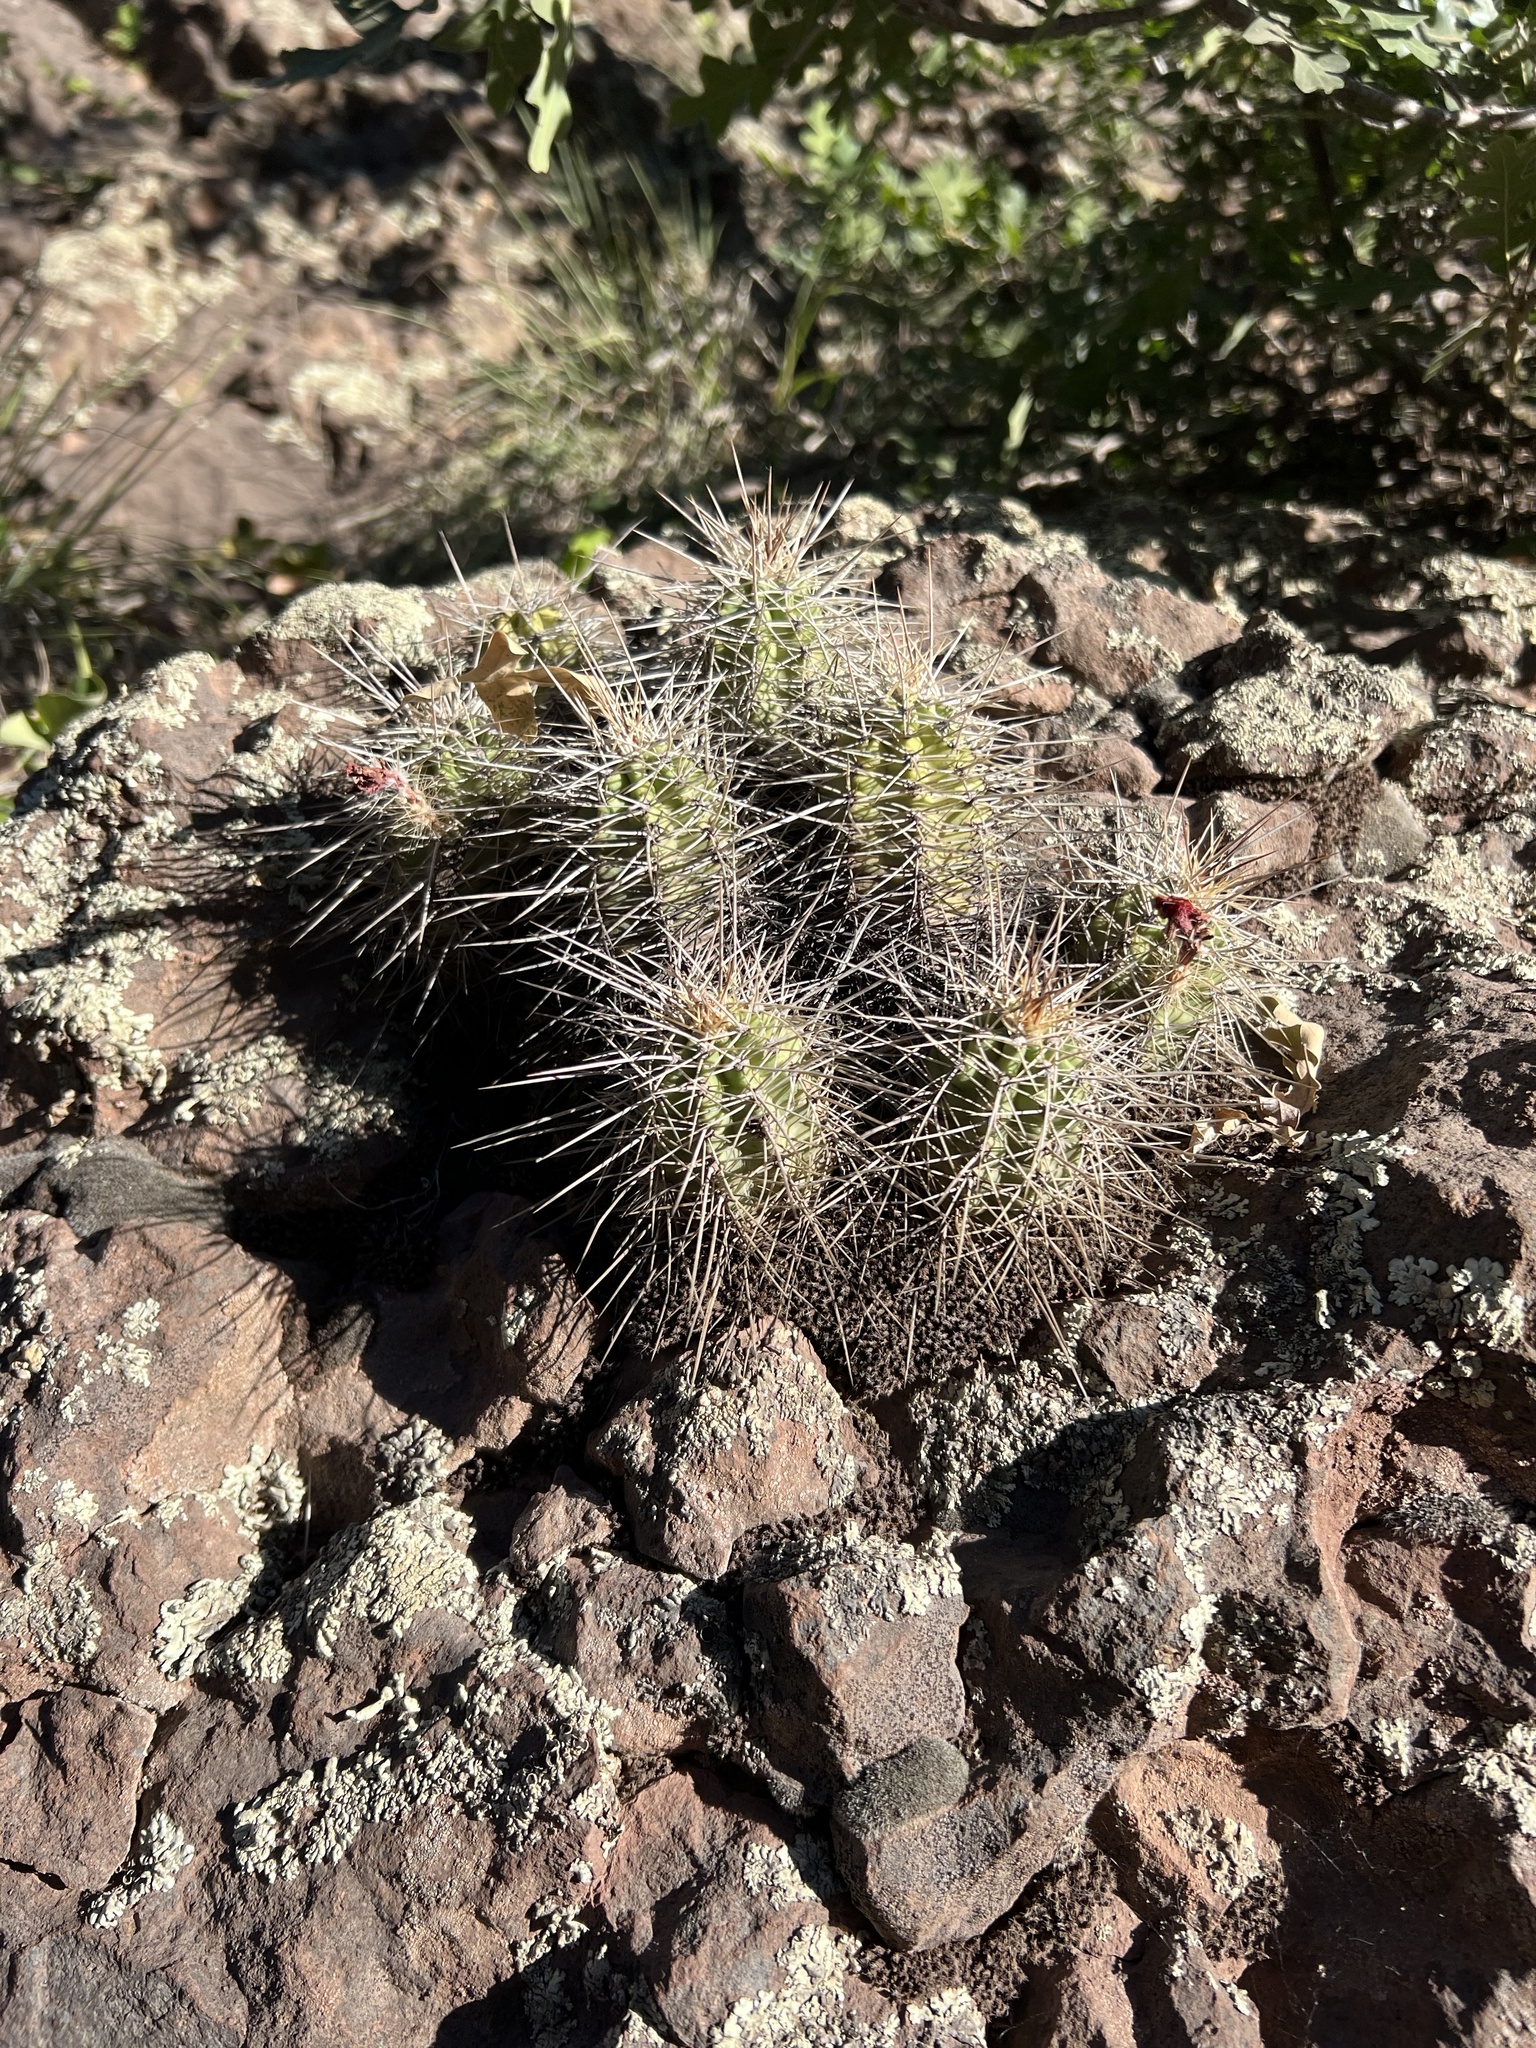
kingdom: Plantae
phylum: Tracheophyta
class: Magnoliopsida
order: Caryophyllales
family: Cactaceae
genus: Echinocereus
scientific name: Echinocereus bakeri
